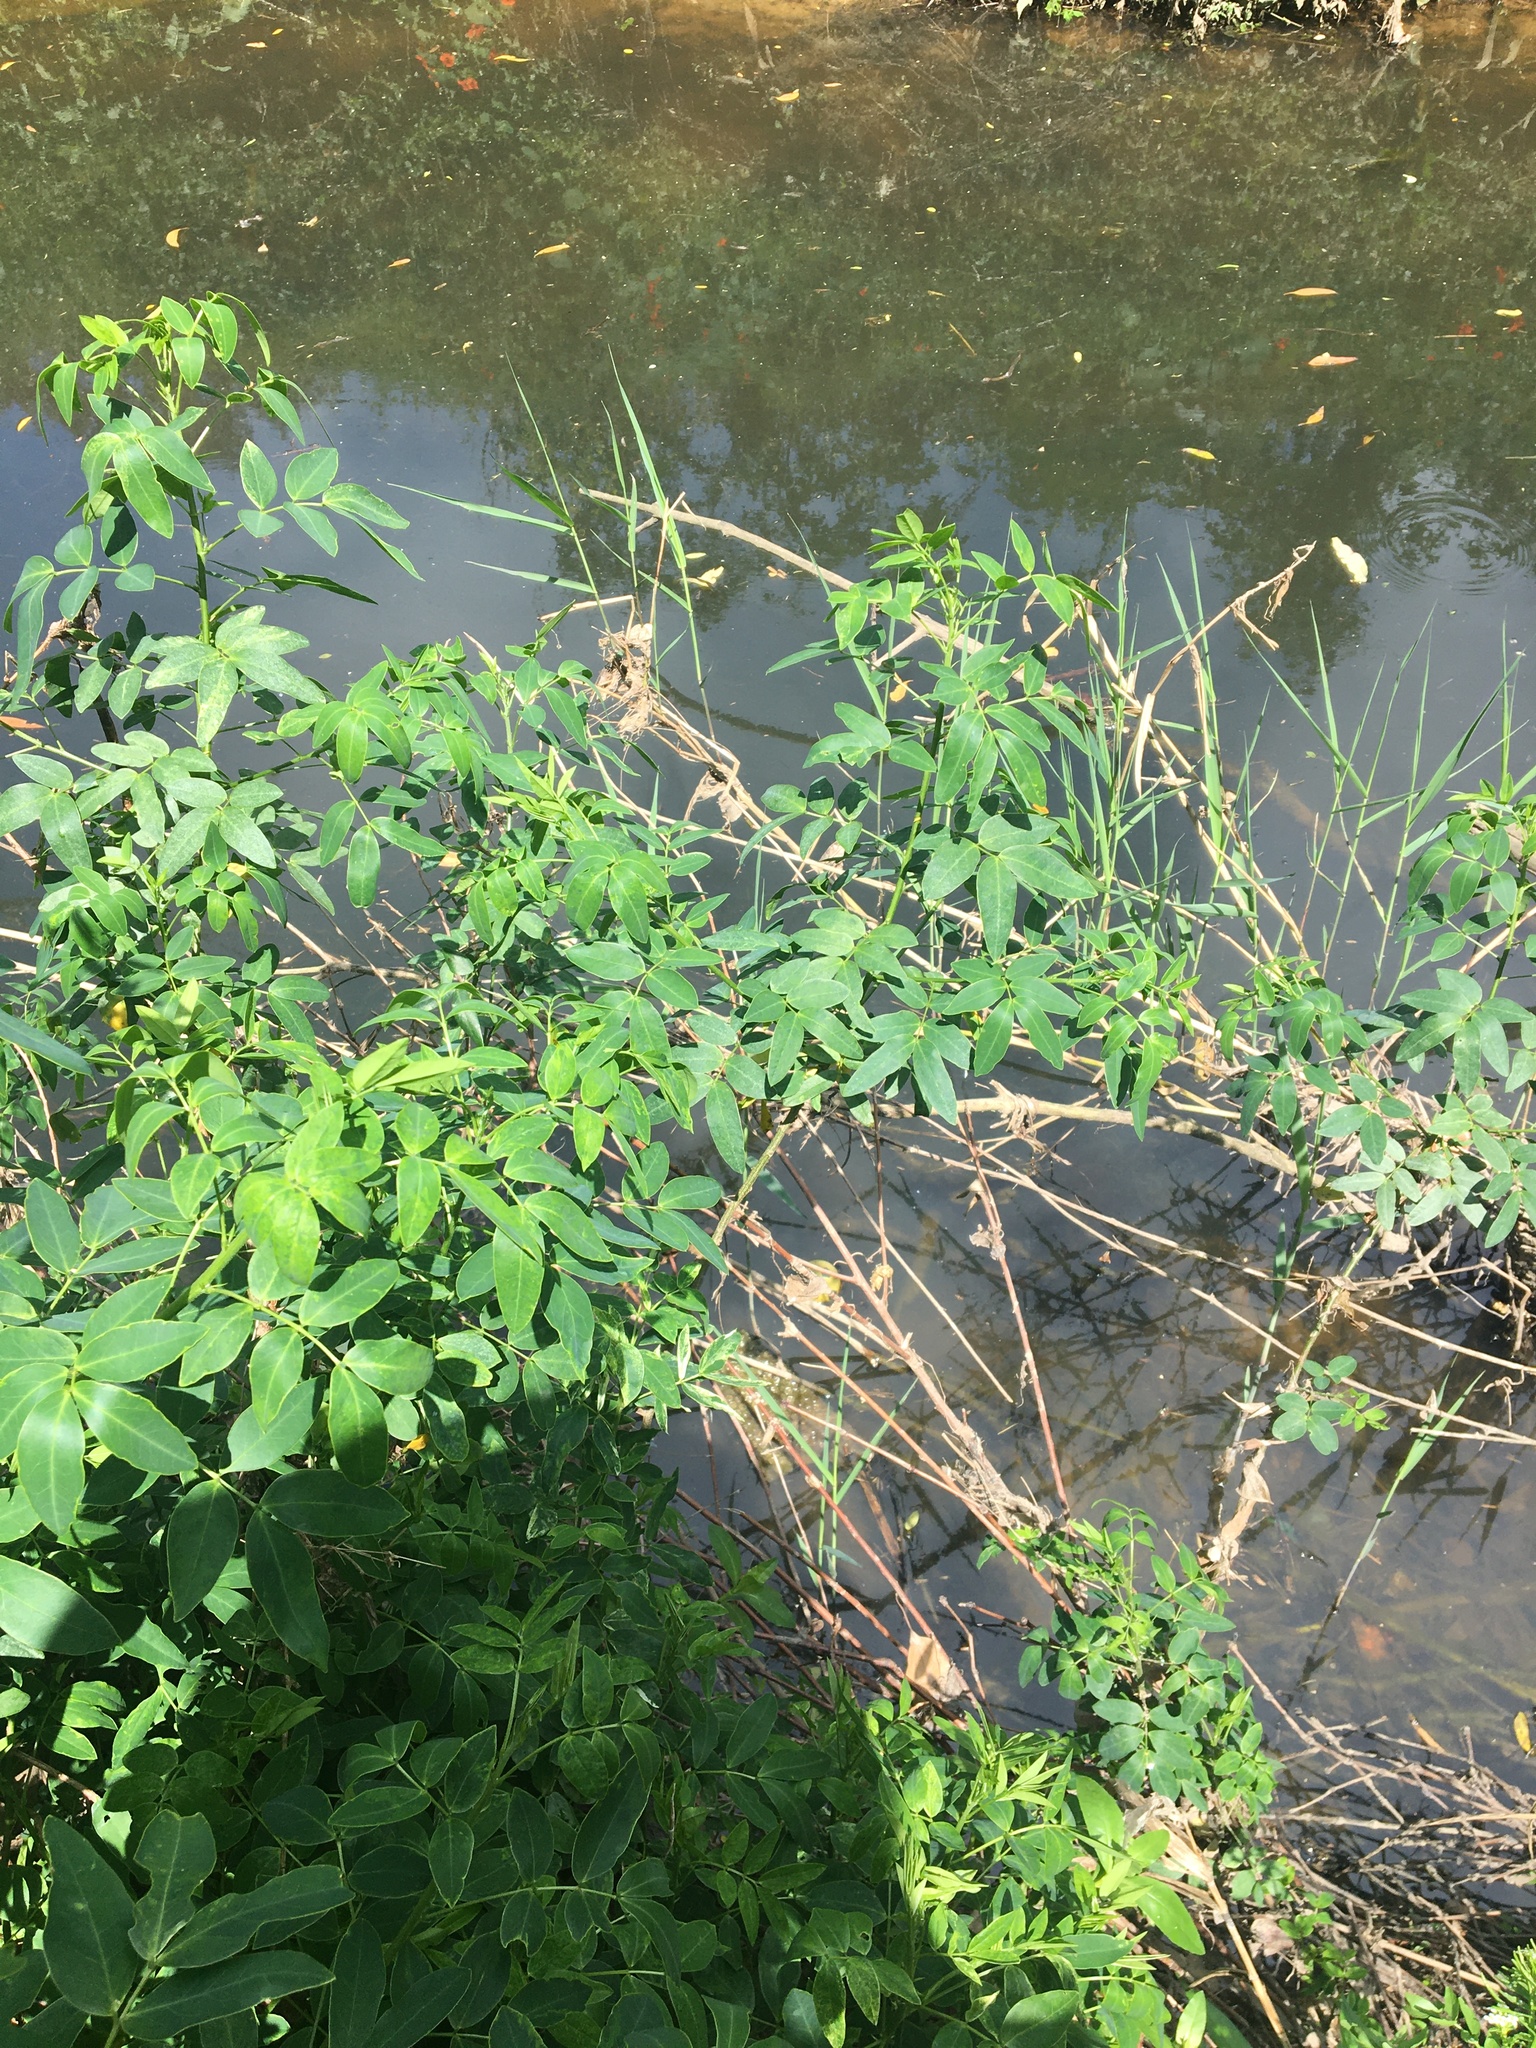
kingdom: Plantae
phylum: Tracheophyta
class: Magnoliopsida
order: Fabales
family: Fabaceae
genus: Senna
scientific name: Senna pendula
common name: Easter cassia
